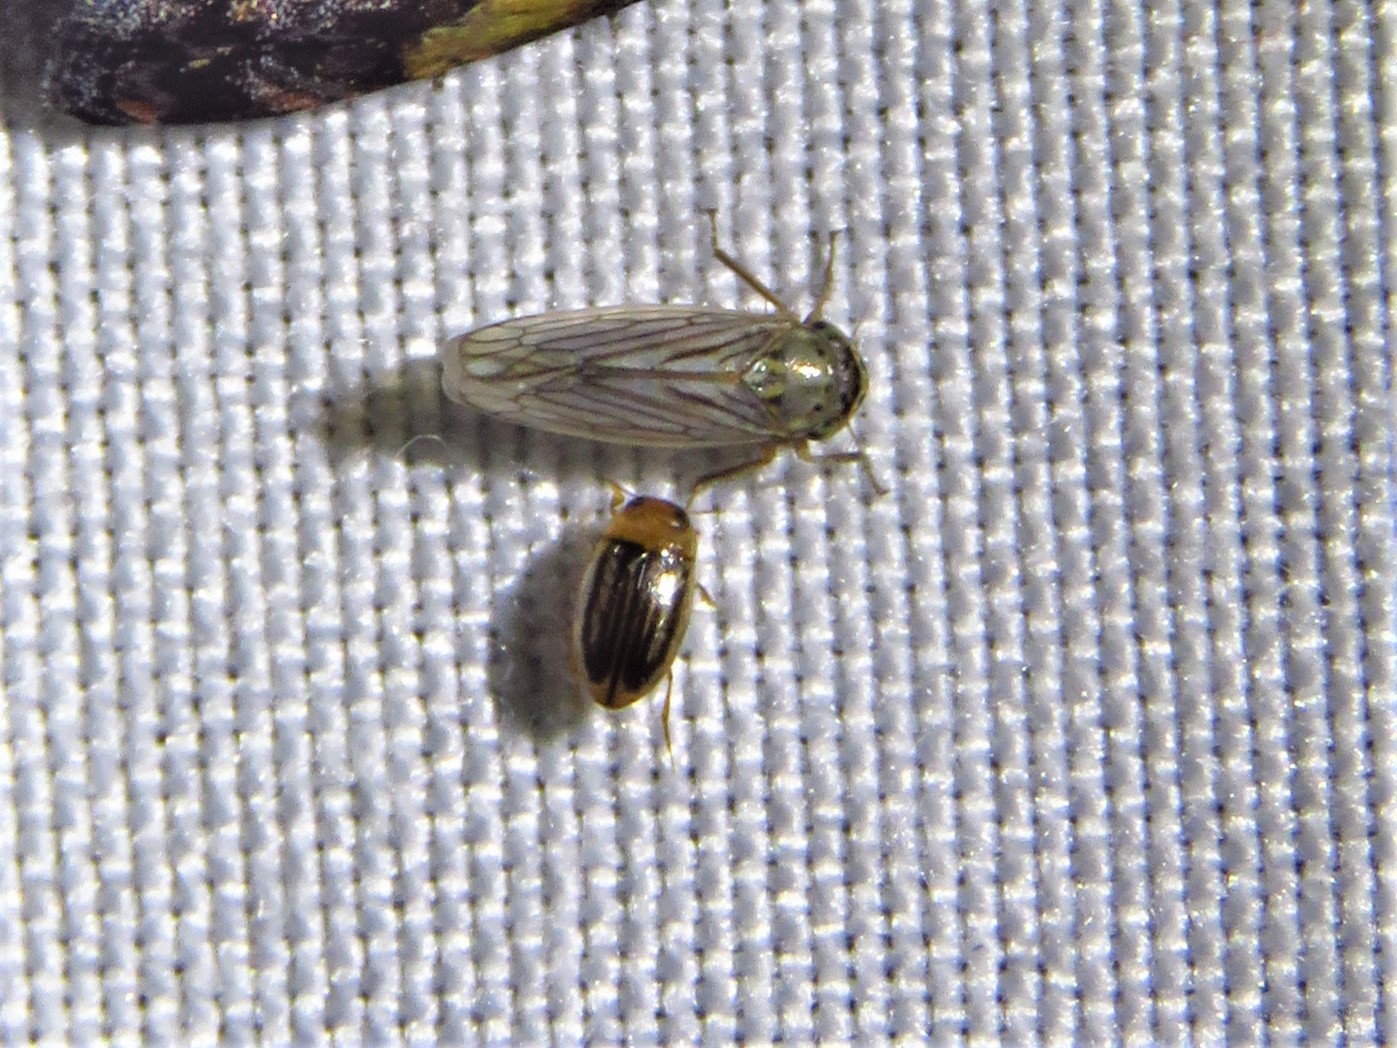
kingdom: Animalia
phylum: Arthropoda
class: Insecta
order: Coleoptera
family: Dytiscidae
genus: Neobidessus
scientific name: Neobidessus pullus
